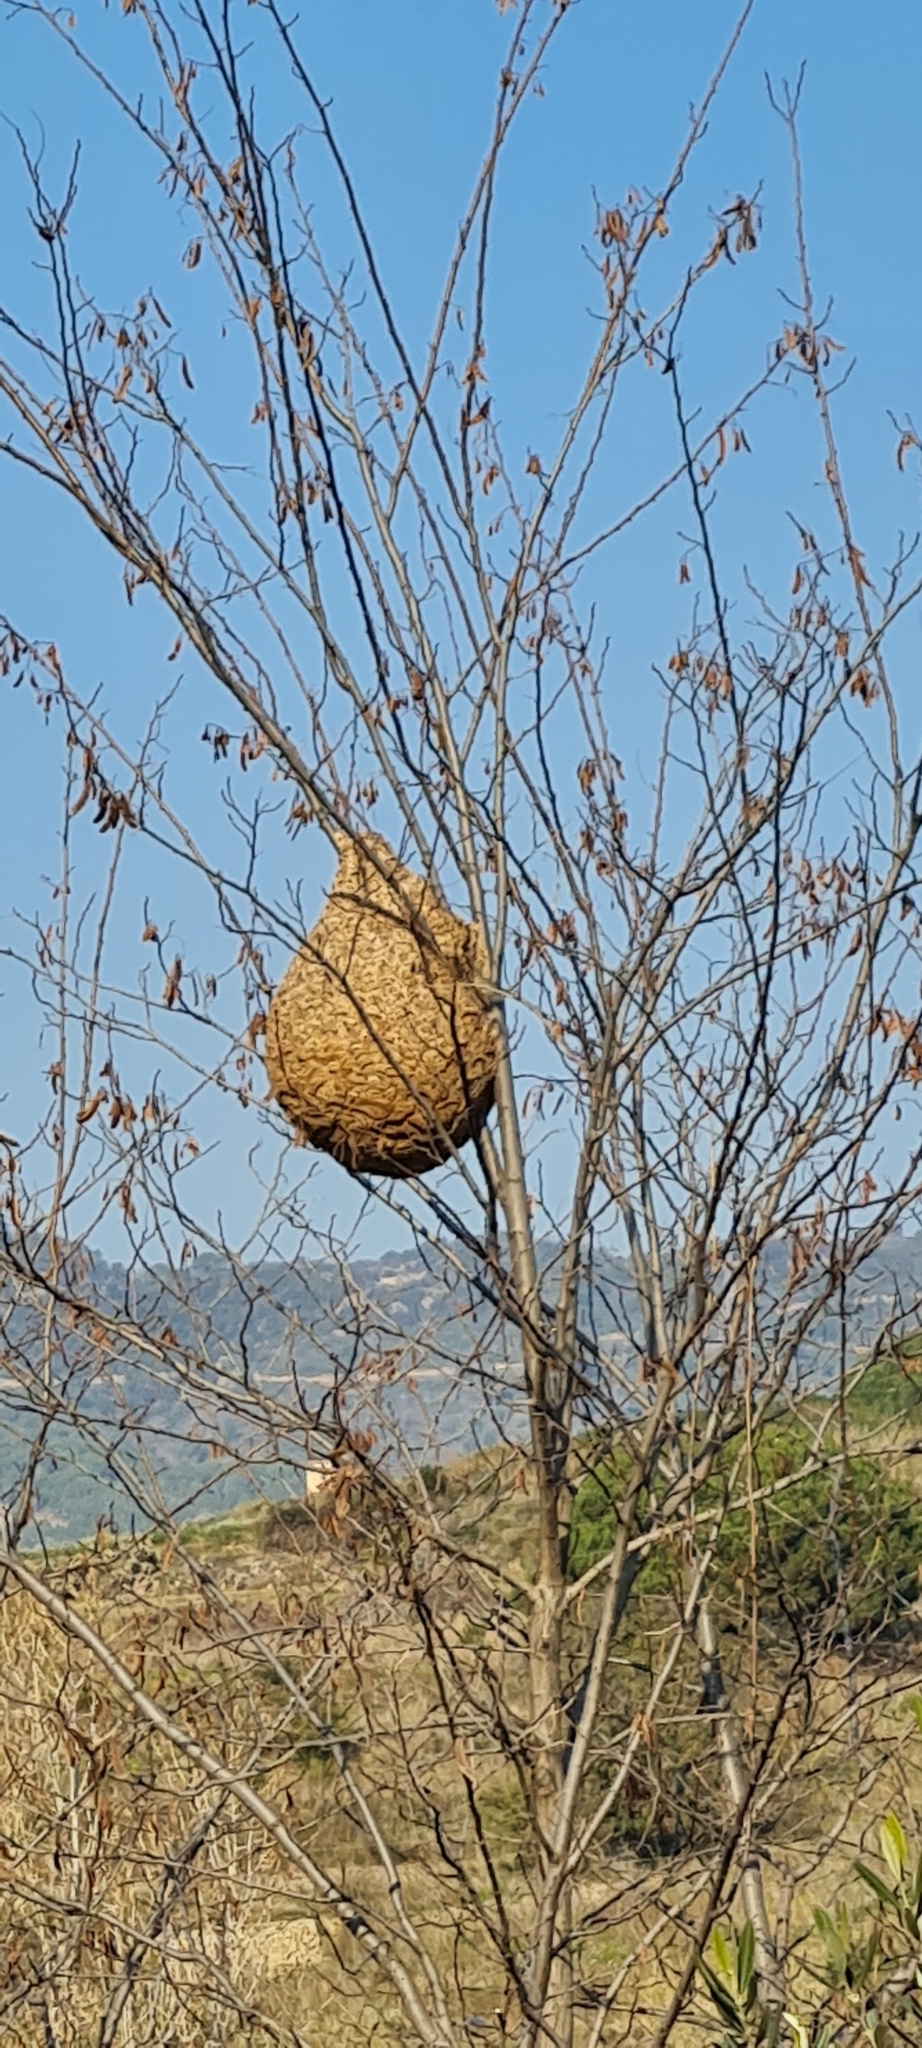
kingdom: Animalia
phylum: Arthropoda
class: Insecta
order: Hymenoptera
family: Vespidae
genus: Vespa
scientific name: Vespa velutina
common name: Asian hornet
